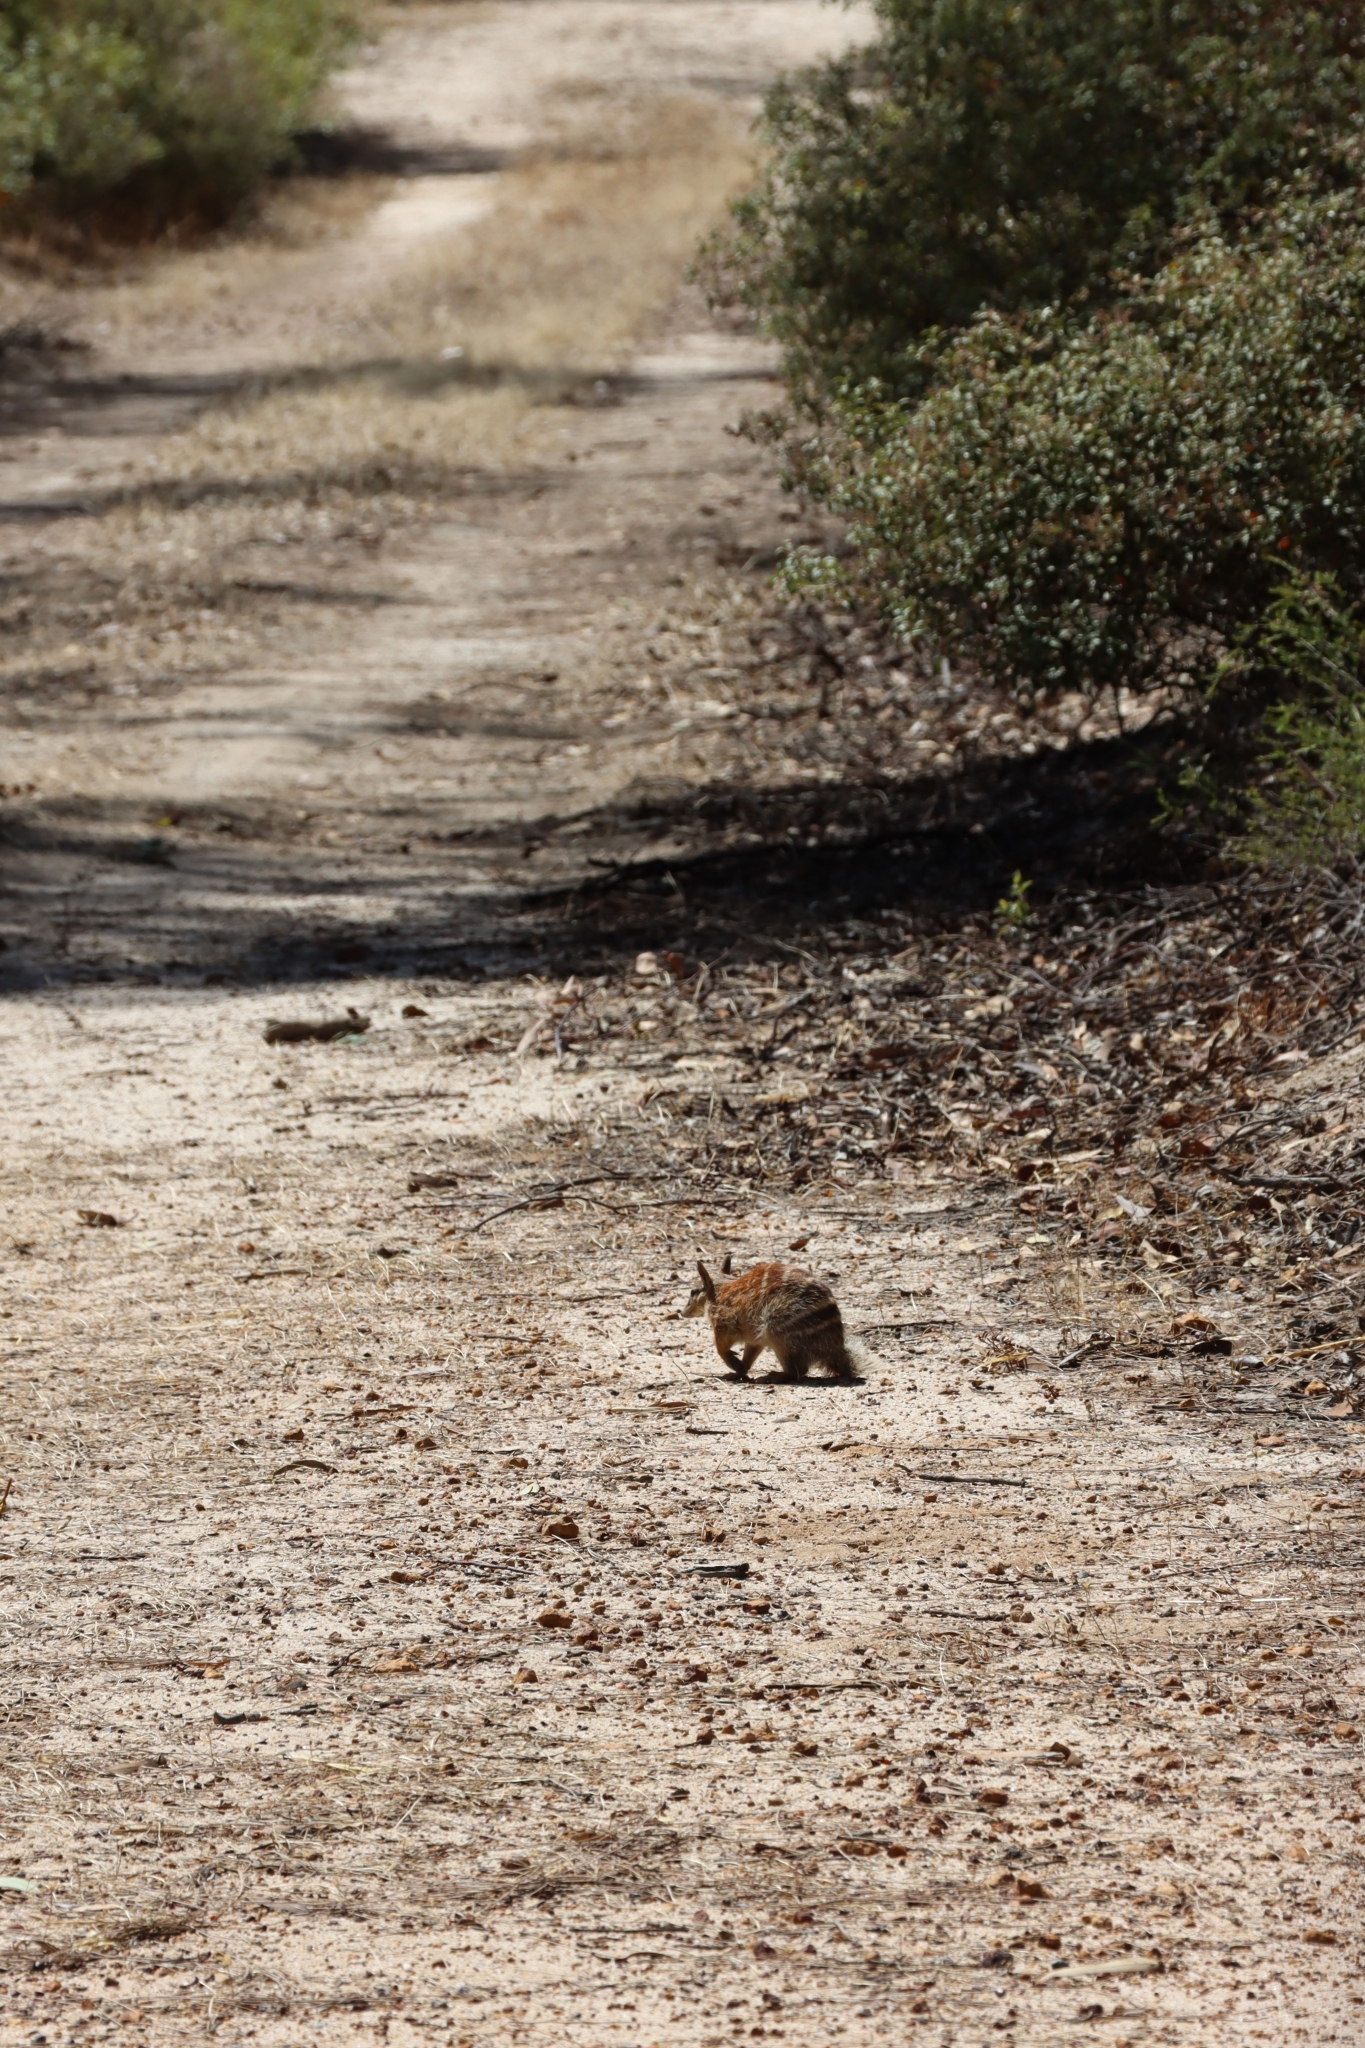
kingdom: Animalia
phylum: Chordata
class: Mammalia
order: Dasyuromorphia
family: Myrmecobiidae
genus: Myrmecobius
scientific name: Myrmecobius fasciatus
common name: Numbat
